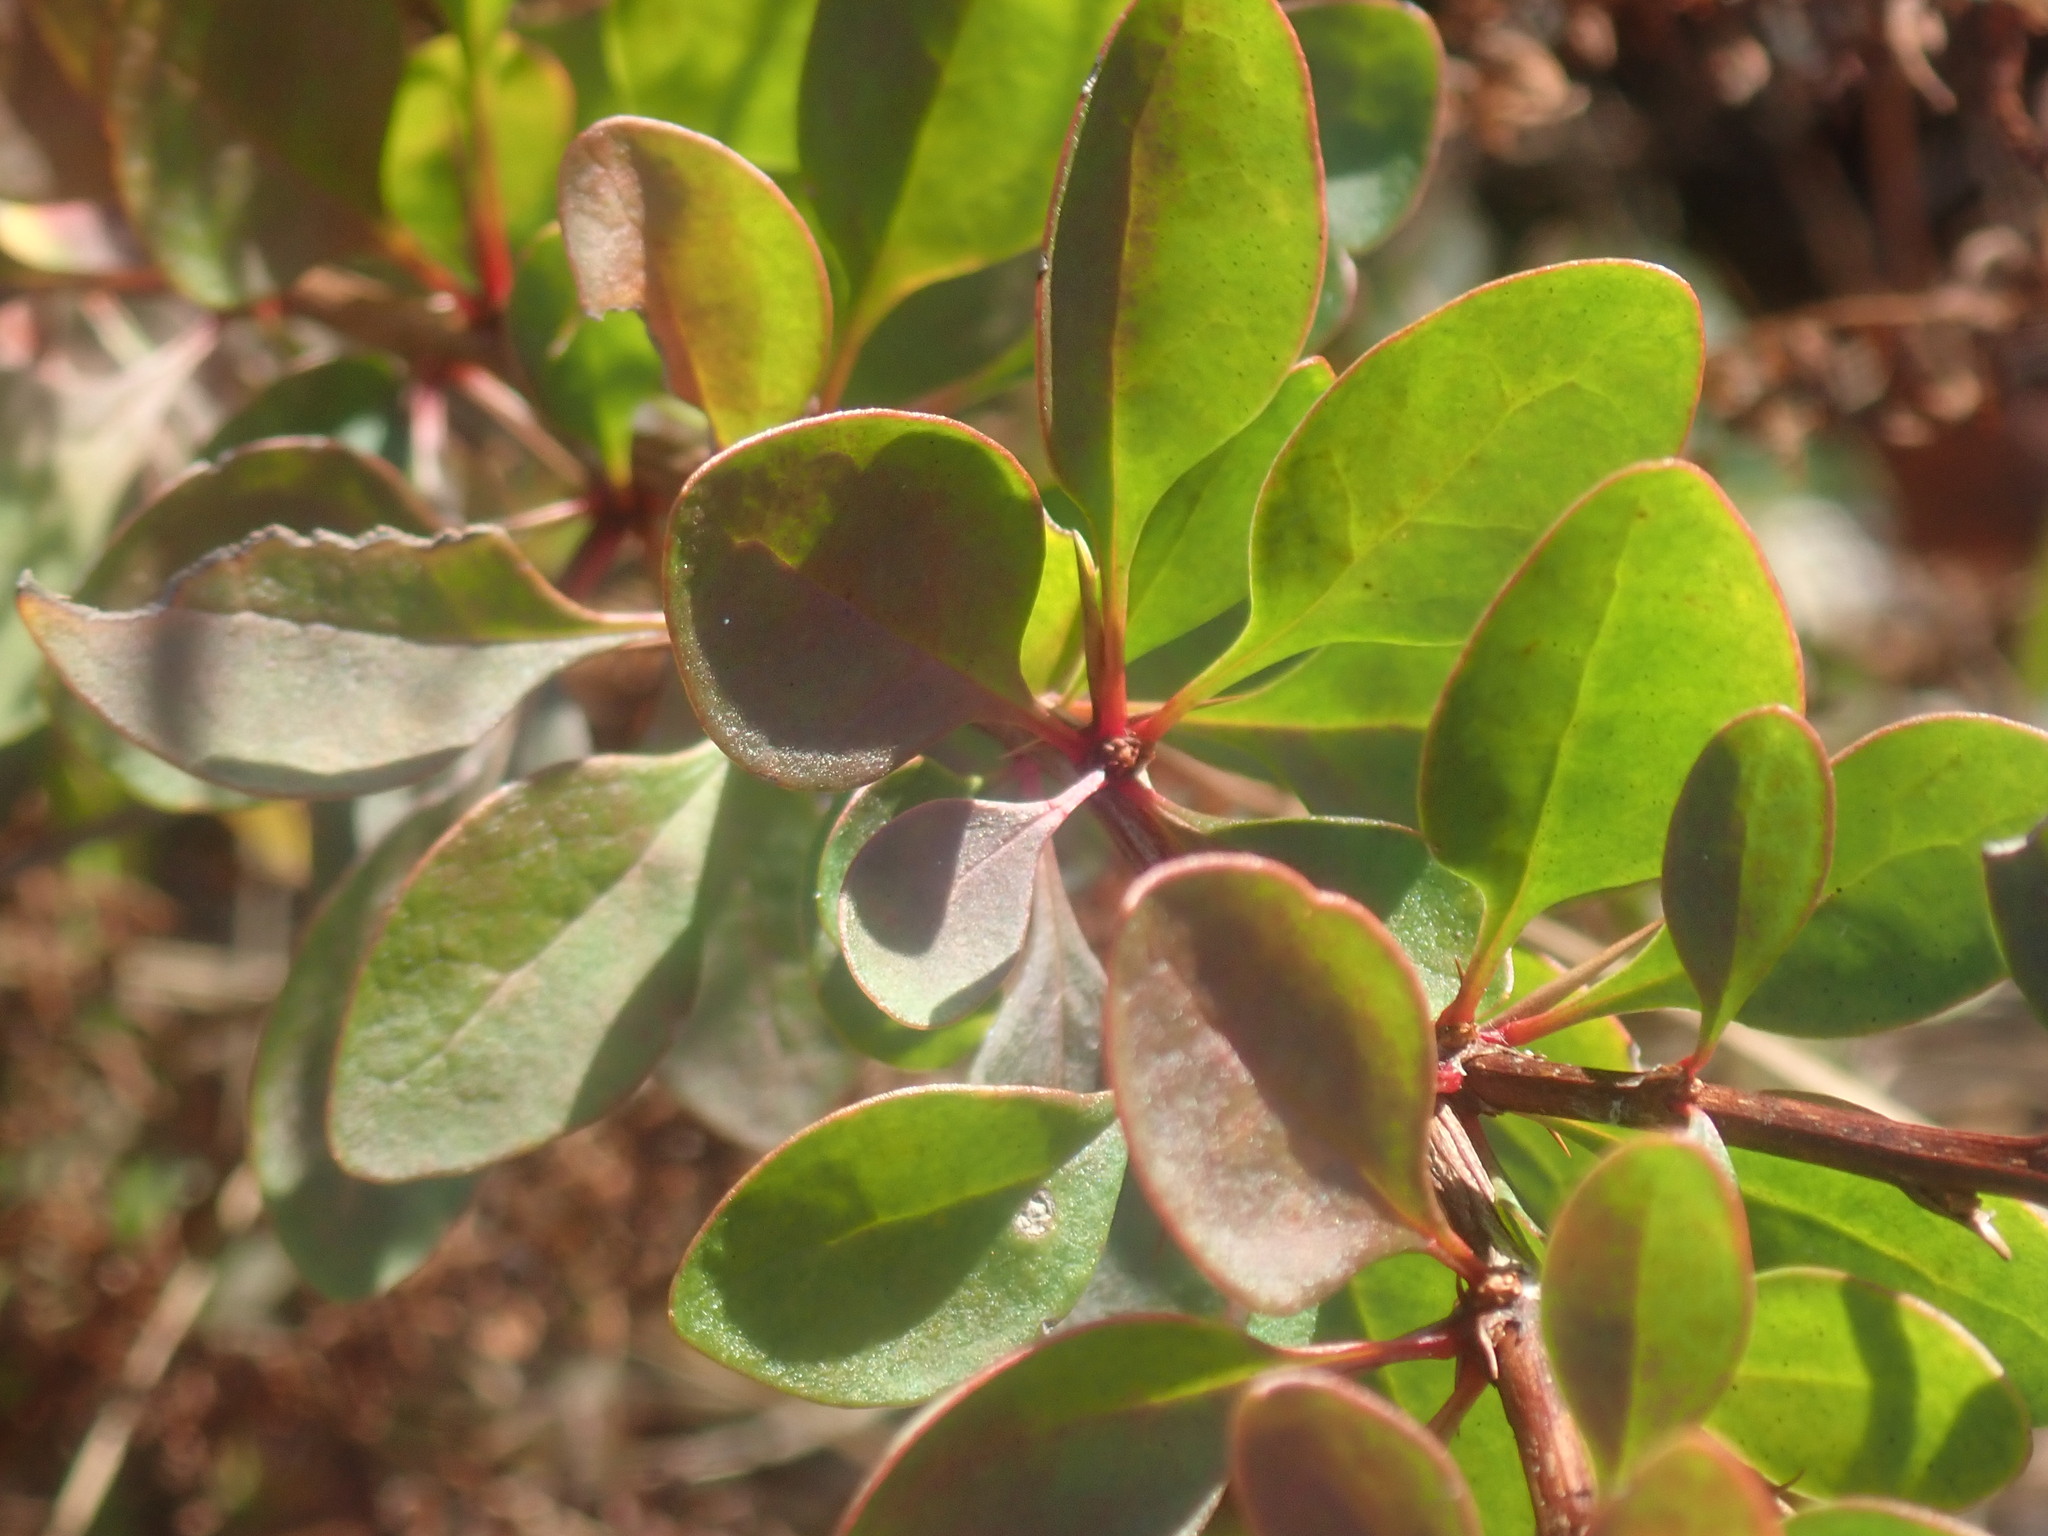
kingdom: Plantae
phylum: Tracheophyta
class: Magnoliopsida
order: Ranunculales
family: Berberidaceae
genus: Berberis
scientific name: Berberis thunbergii
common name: Japanese barberry
